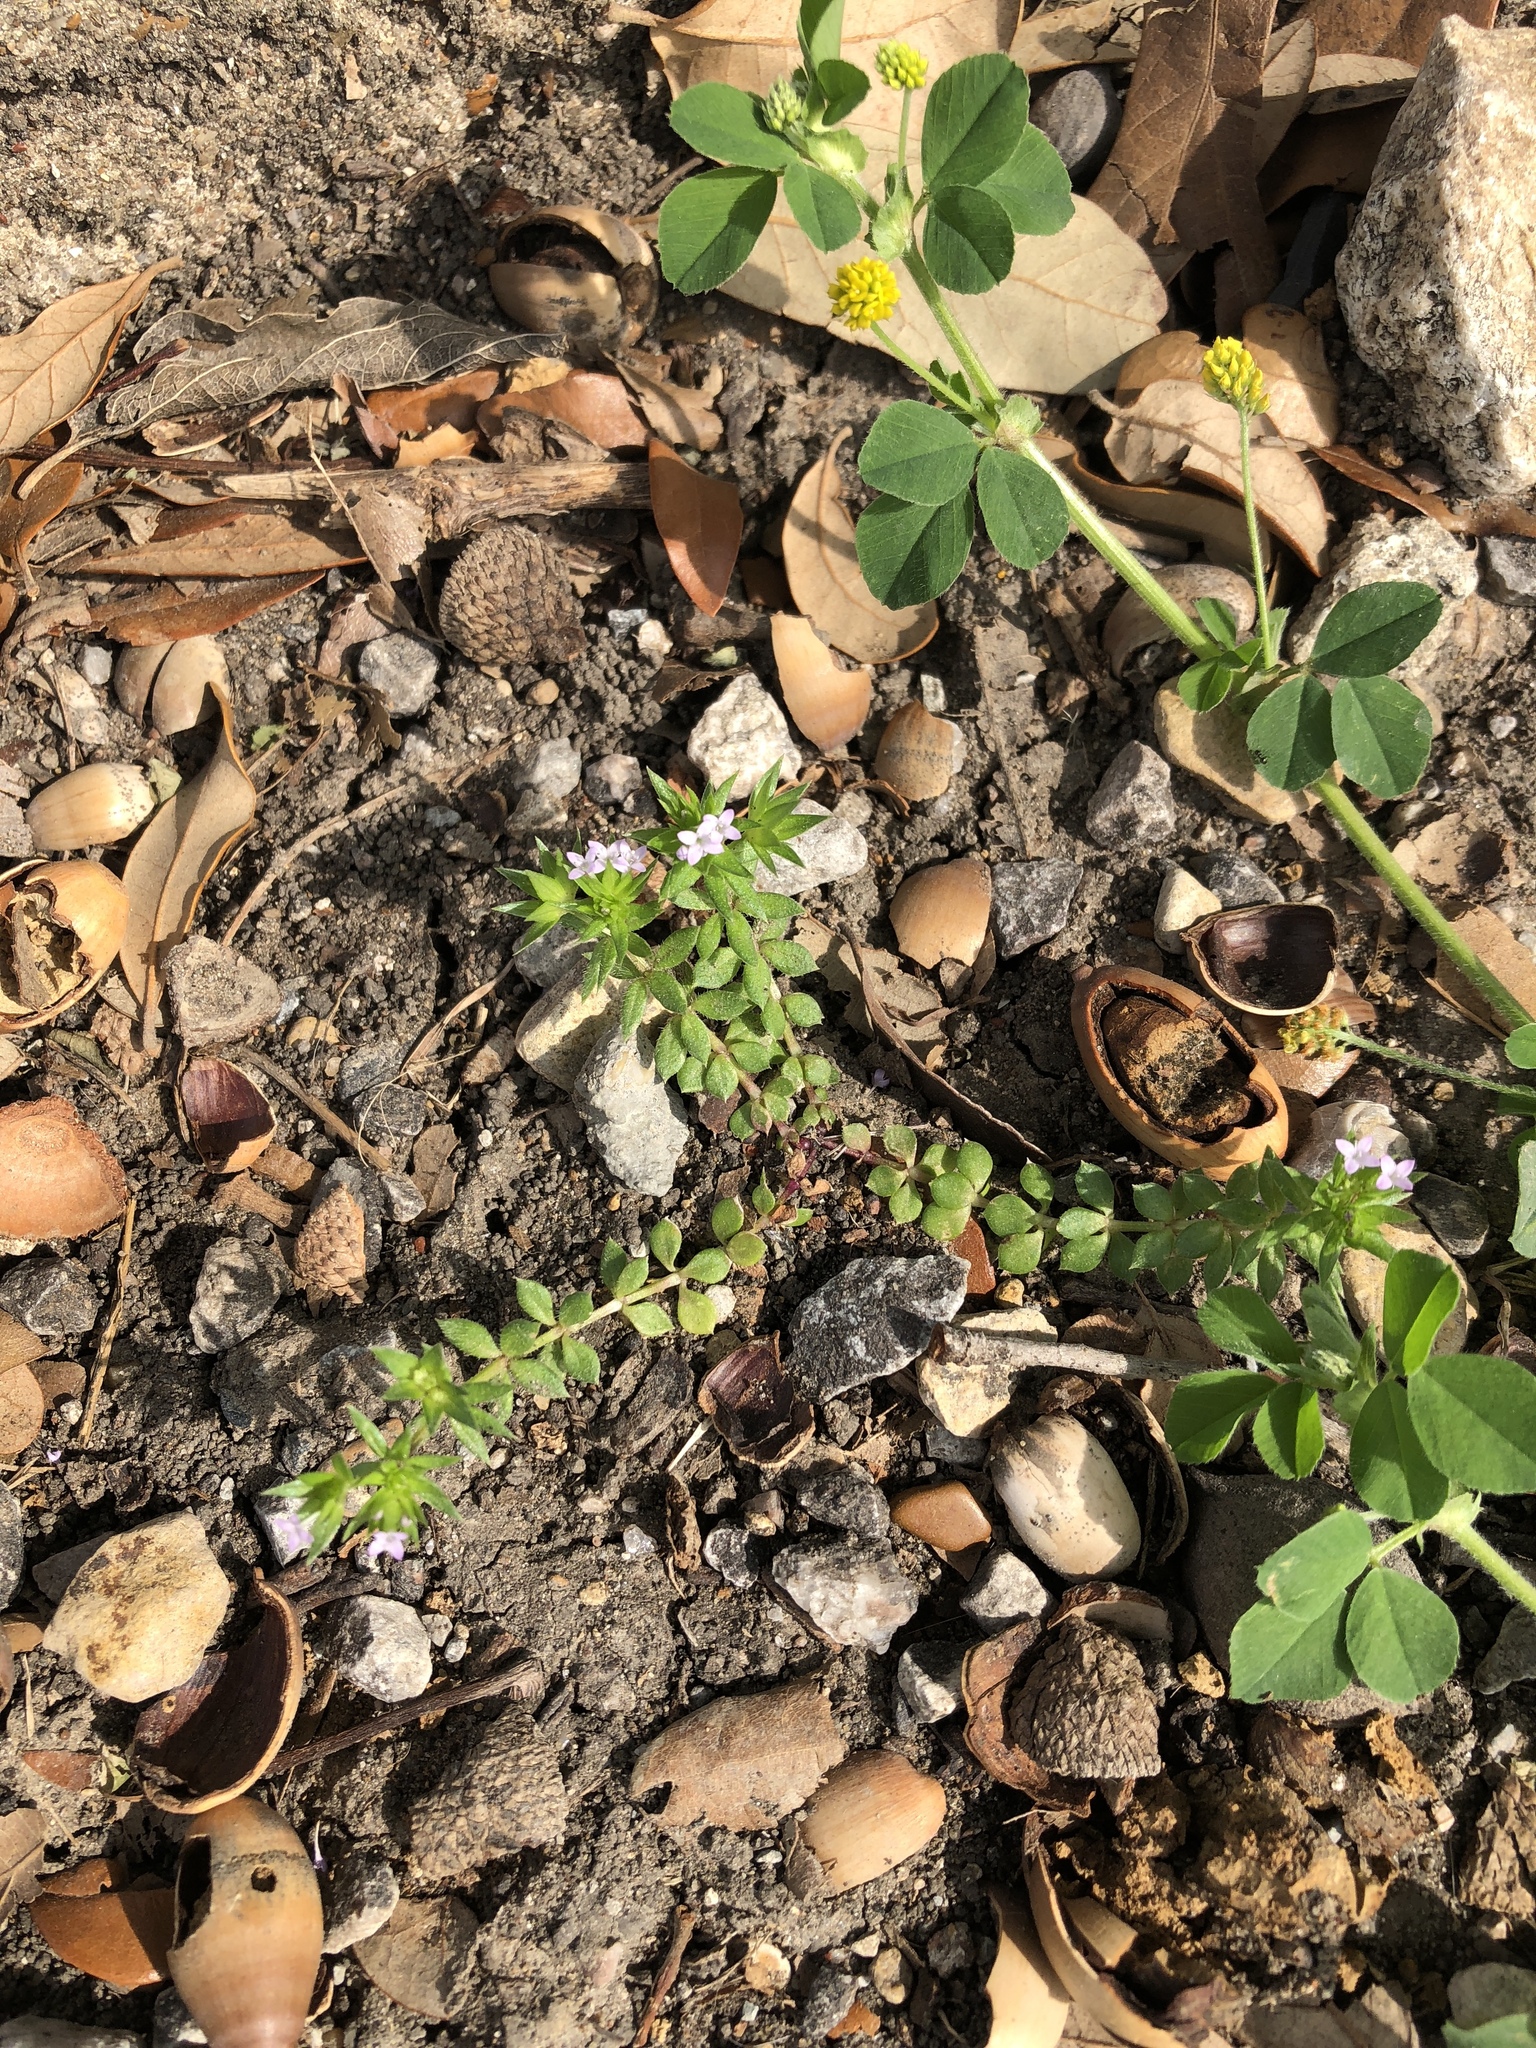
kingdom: Plantae
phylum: Tracheophyta
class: Magnoliopsida
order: Gentianales
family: Rubiaceae
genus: Sherardia
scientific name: Sherardia arvensis
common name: Field madder
